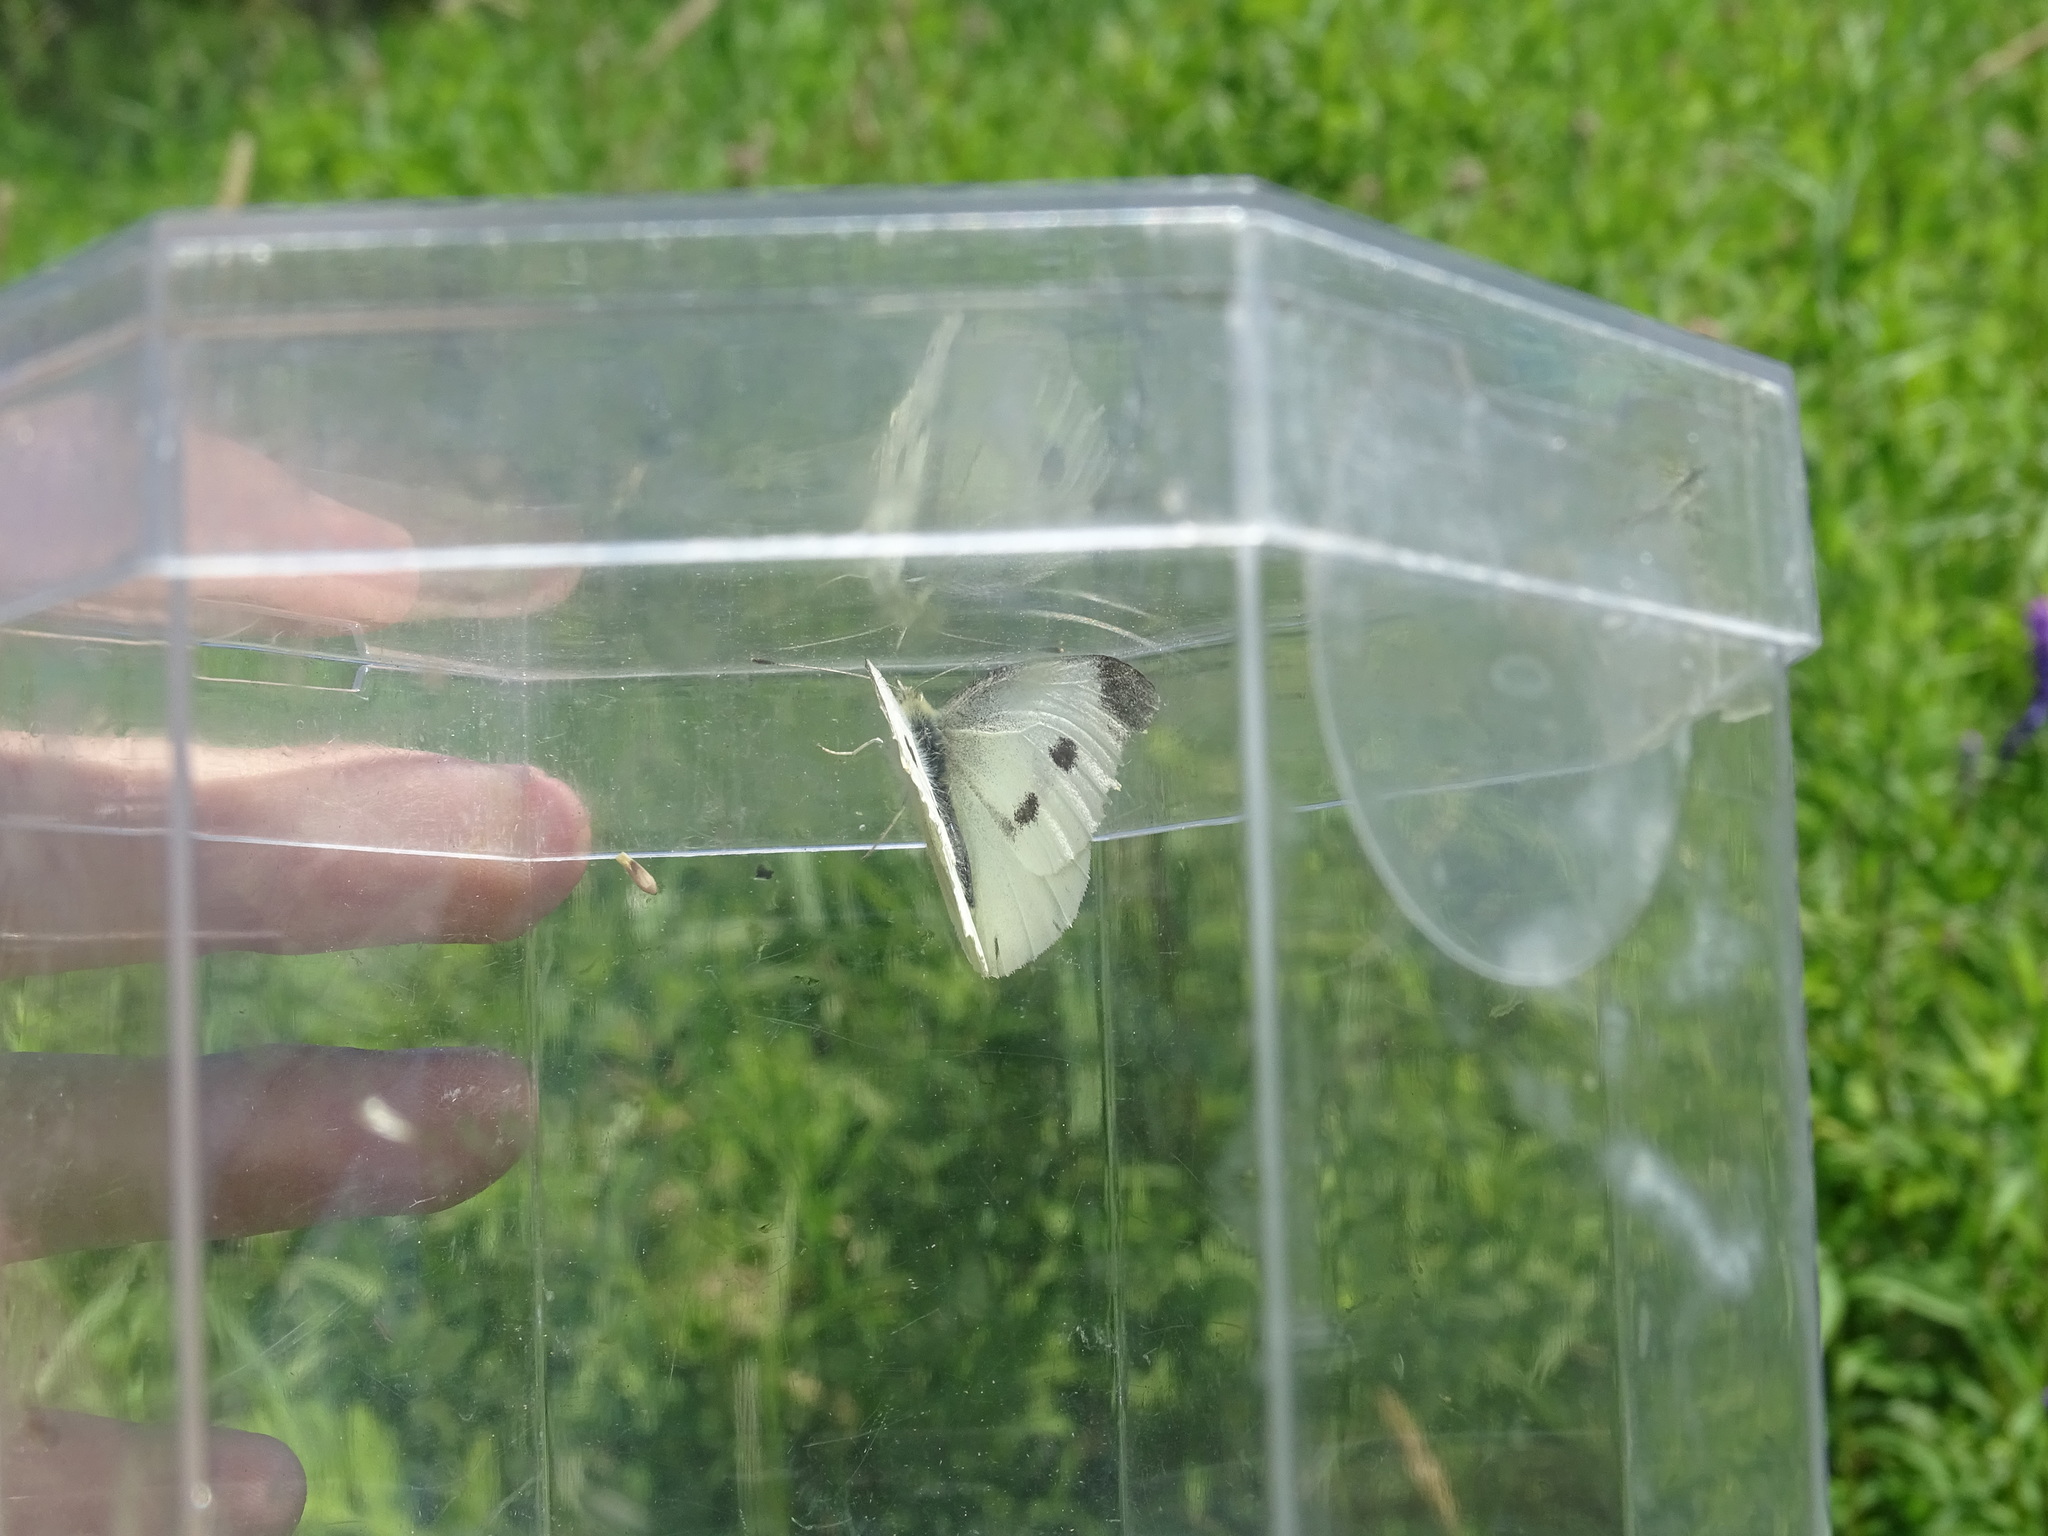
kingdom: Animalia
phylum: Arthropoda
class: Insecta
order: Lepidoptera
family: Pieridae
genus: Pieris
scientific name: Pieris rapae
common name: Small white
